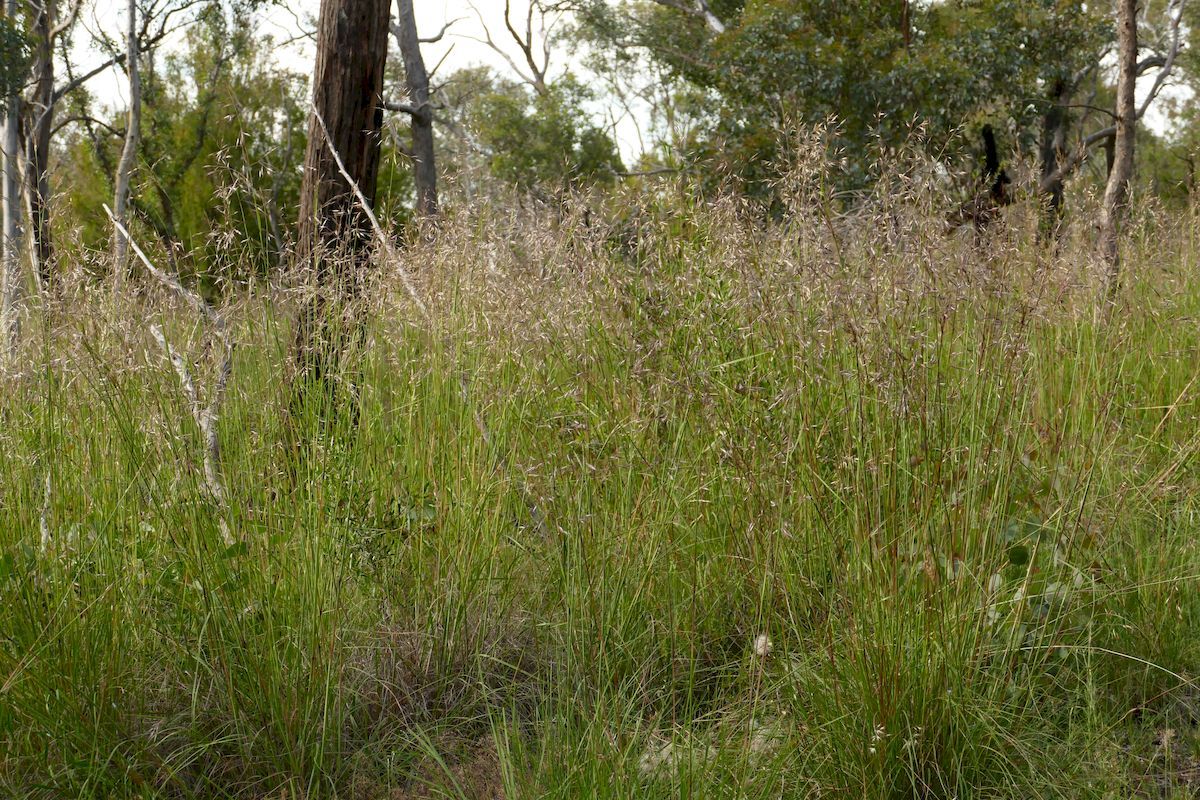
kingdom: Plantae
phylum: Tracheophyta
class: Liliopsida
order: Poales
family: Poaceae
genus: Rytidosperma
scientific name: Rytidosperma pallidum
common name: Red-anther wallaby grass
